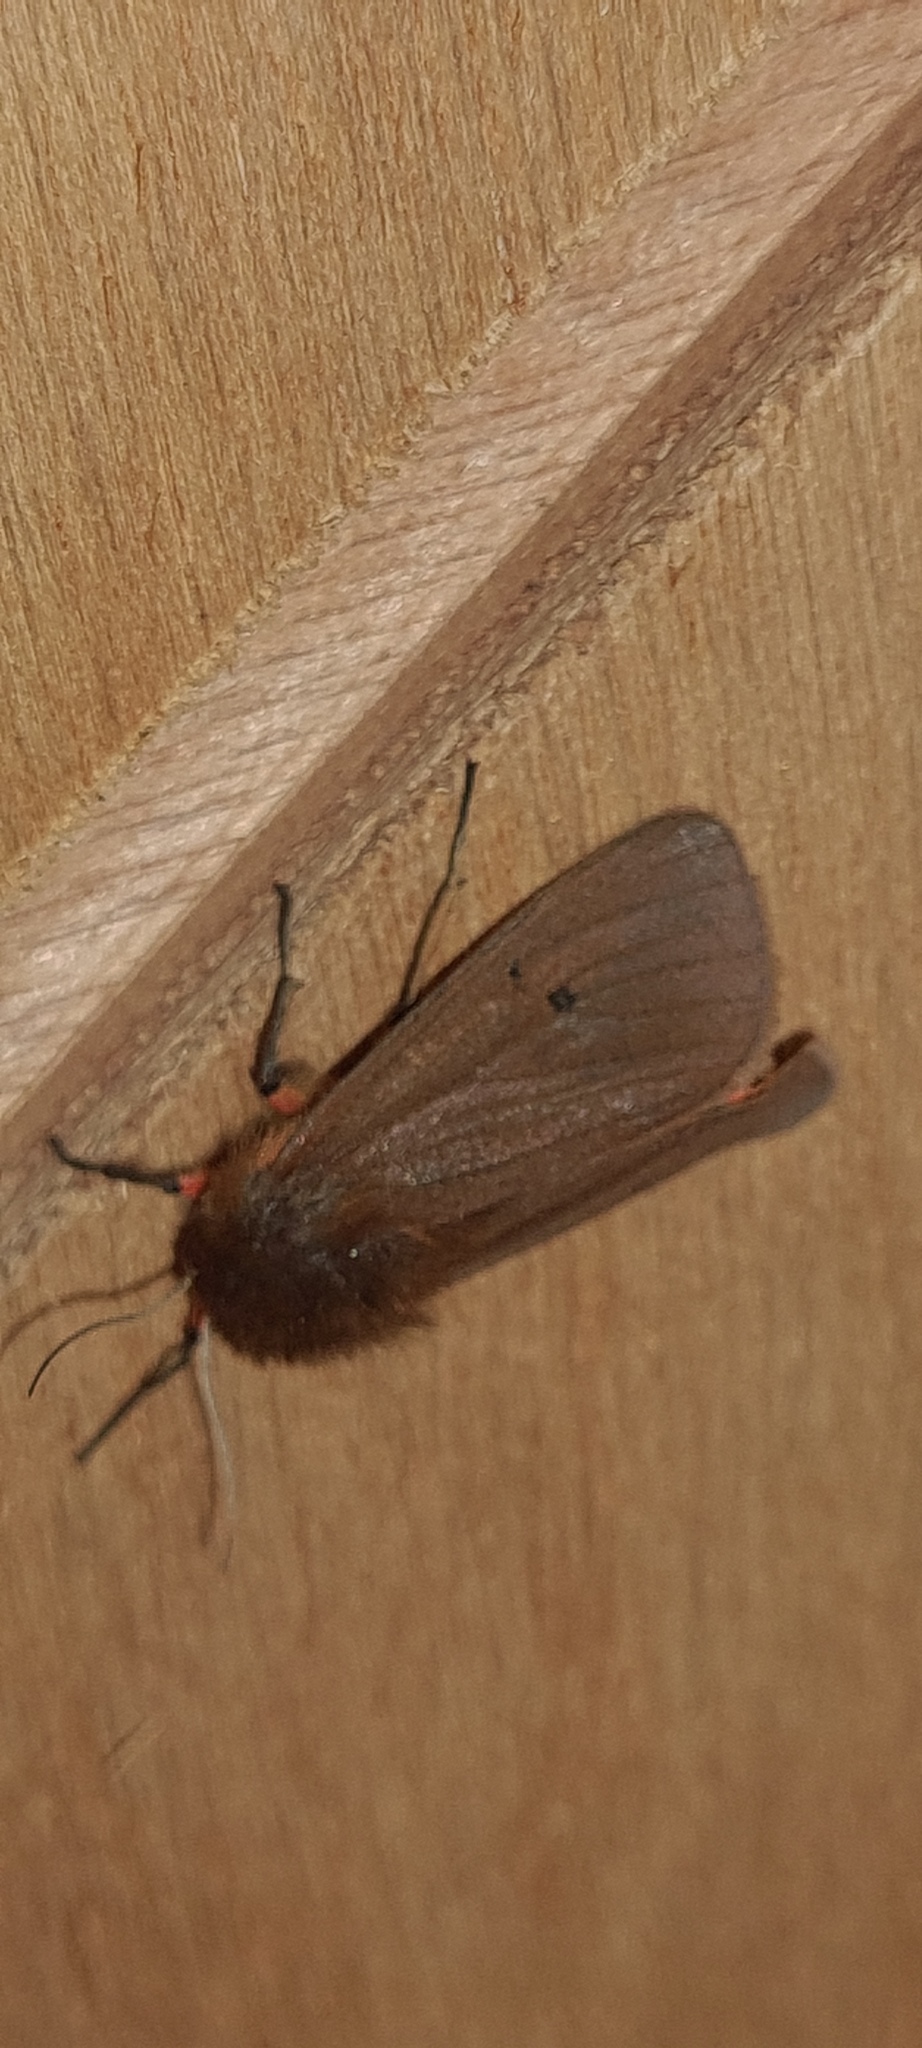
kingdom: Animalia
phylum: Arthropoda
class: Insecta
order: Lepidoptera
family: Erebidae
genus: Phragmatobia
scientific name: Phragmatobia fuliginosa
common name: Ruby tiger
